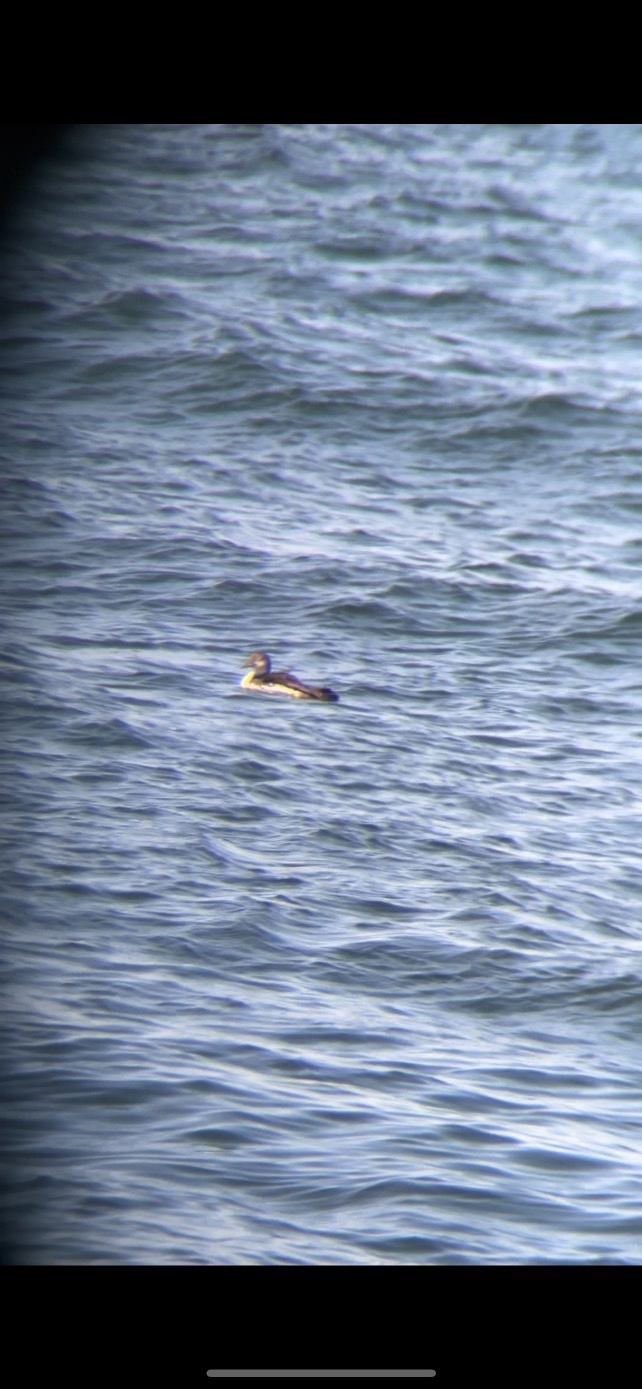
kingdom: Animalia
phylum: Chordata
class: Aves
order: Gaviiformes
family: Gaviidae
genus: Gavia
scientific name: Gavia immer
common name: Common loon
